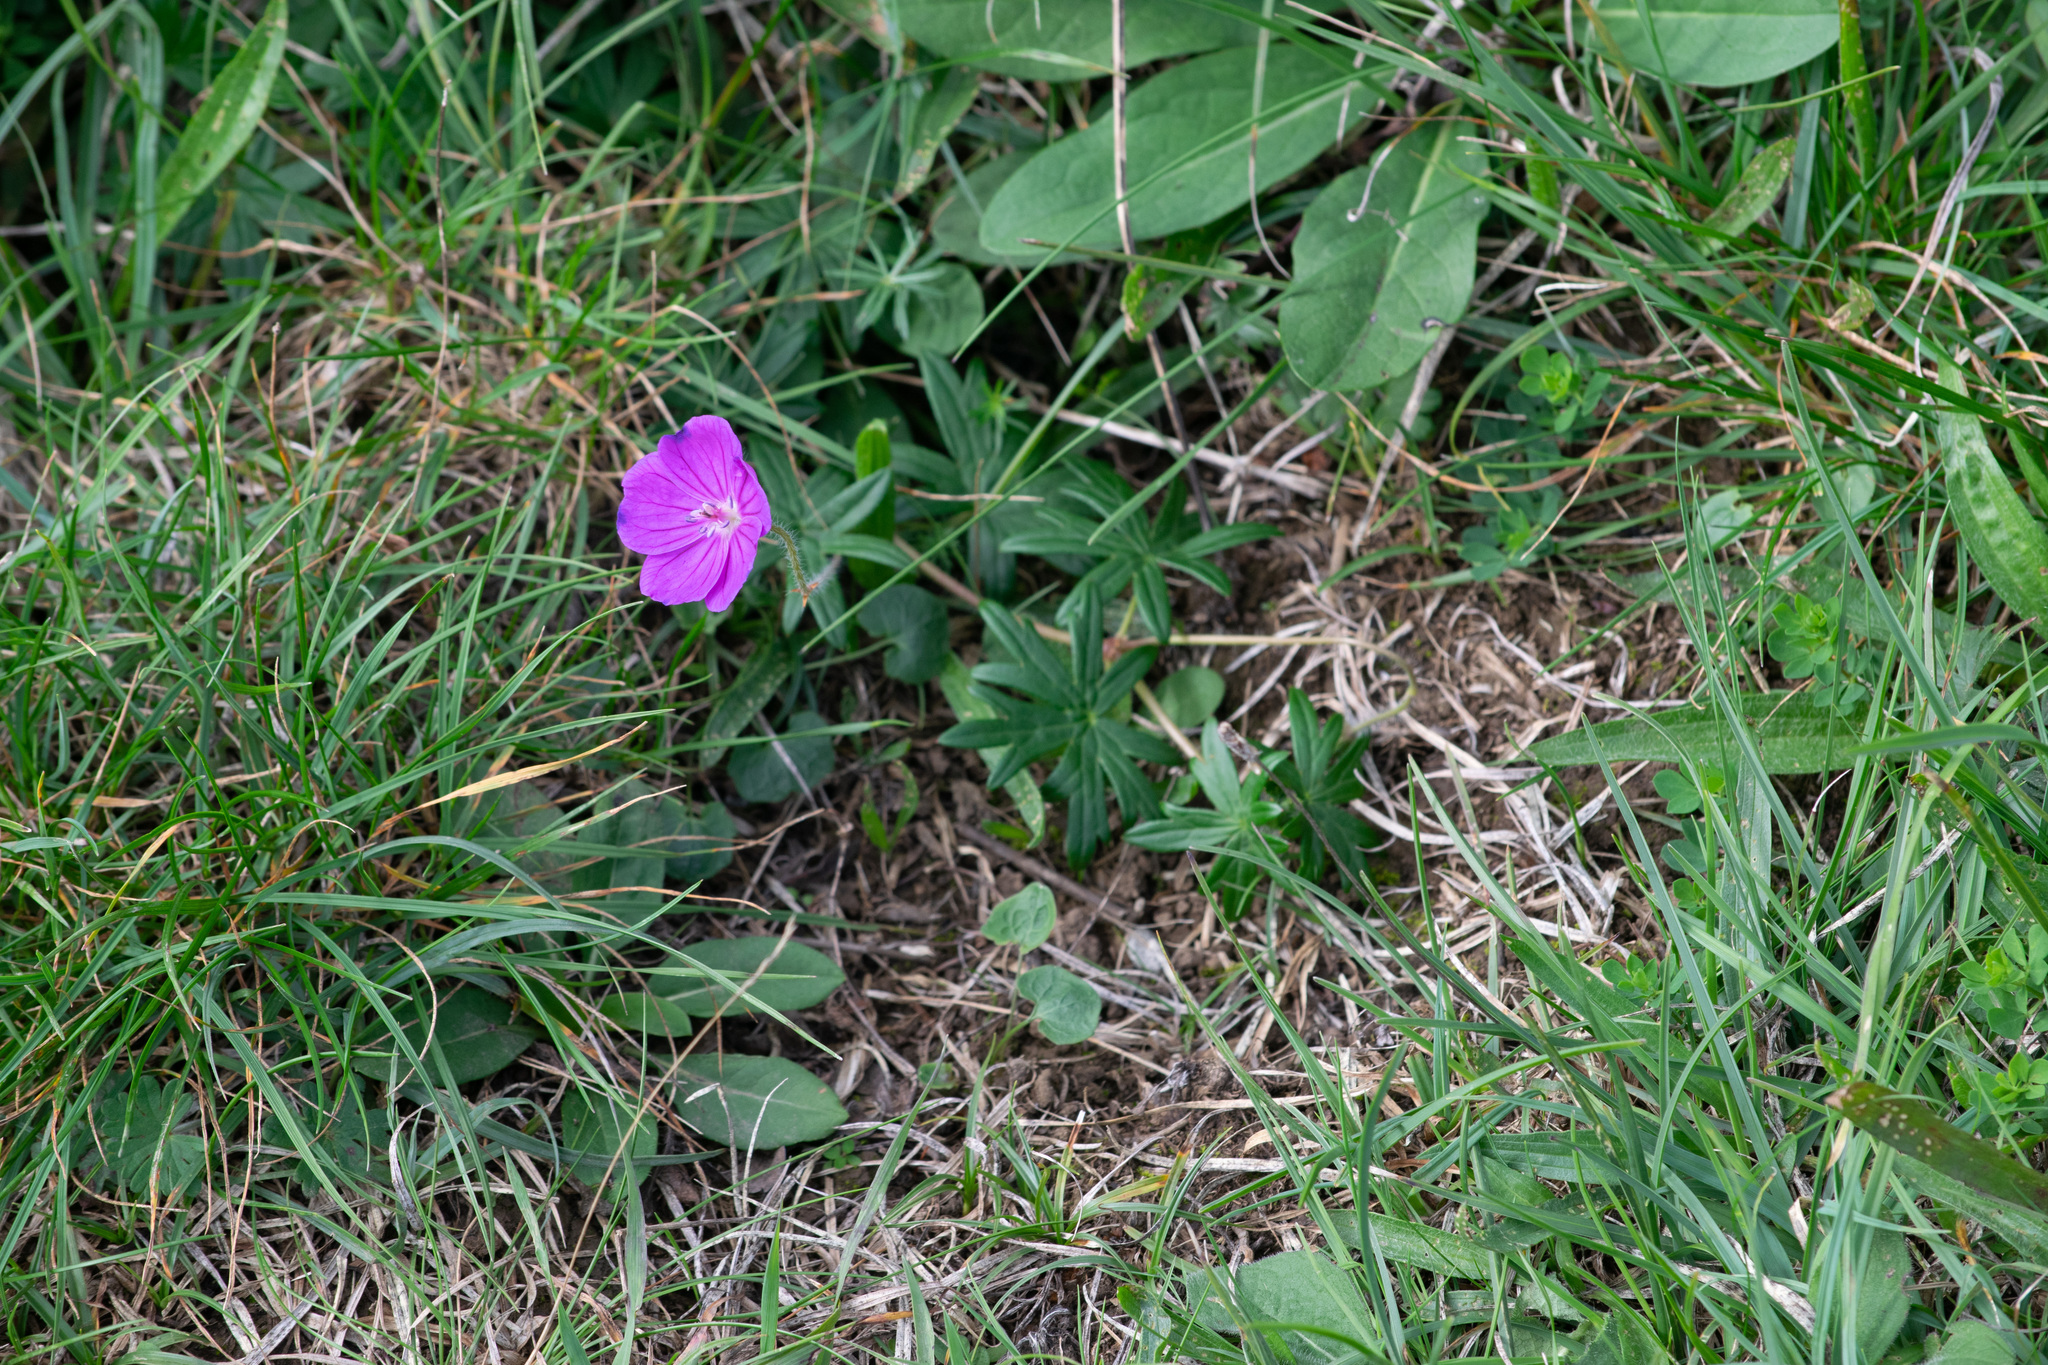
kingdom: Plantae
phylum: Tracheophyta
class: Magnoliopsida
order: Geraniales
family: Geraniaceae
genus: Geranium
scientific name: Geranium sanguineum
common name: Bloody crane's-bill
